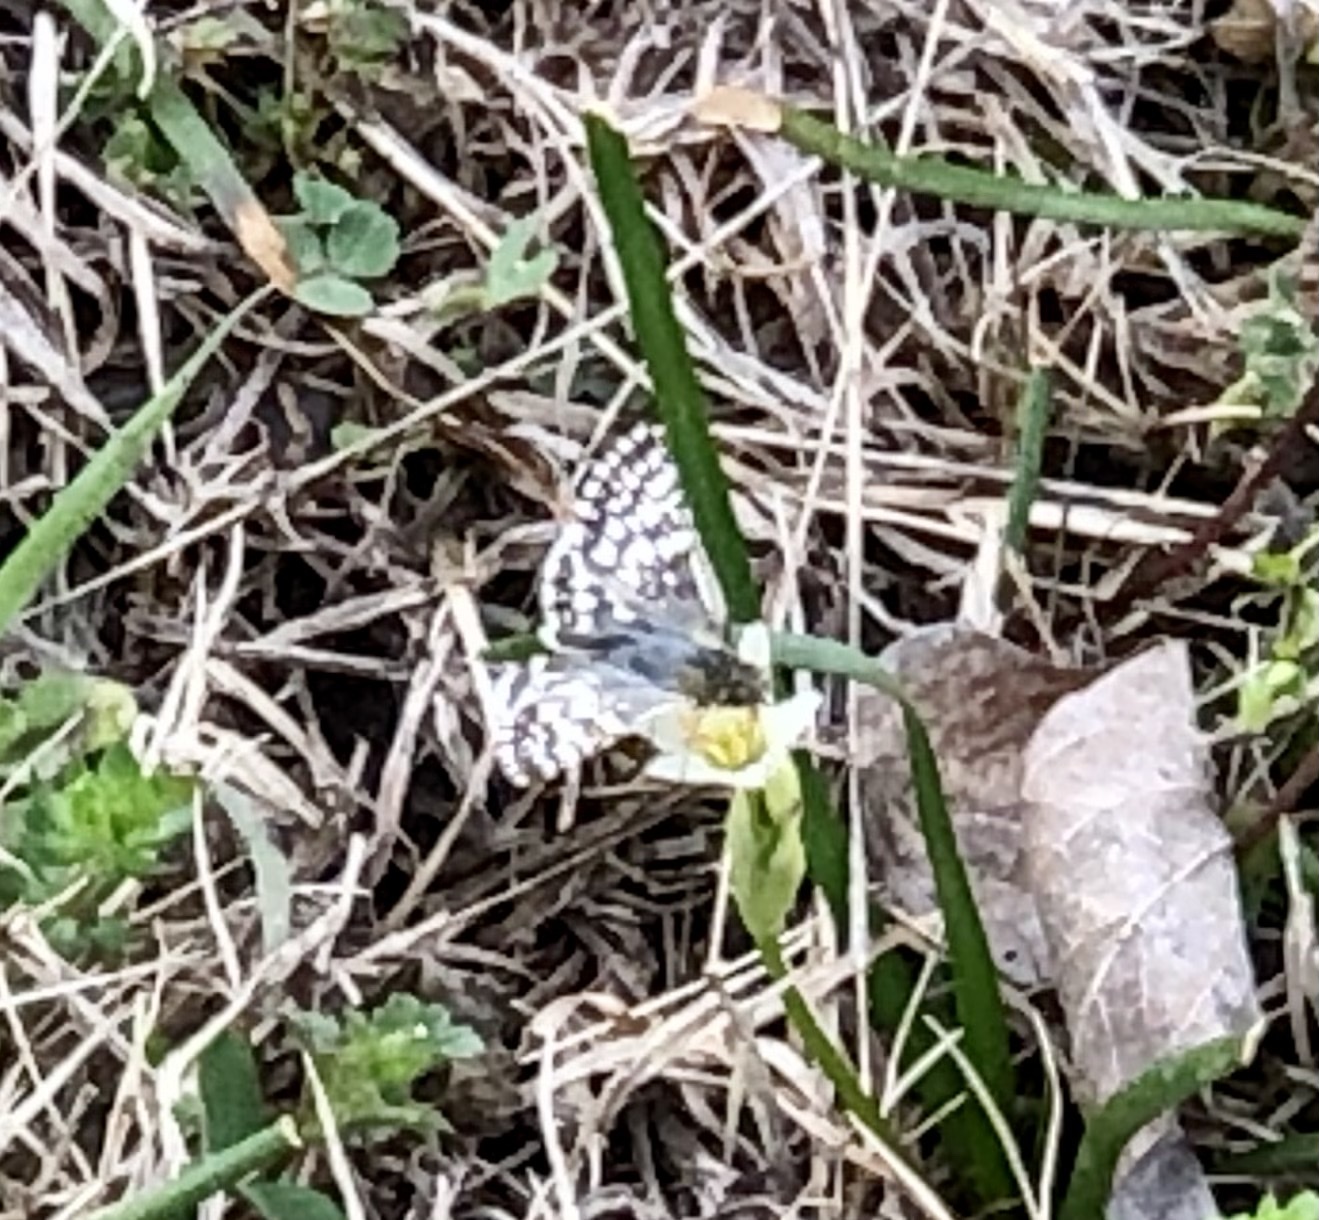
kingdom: Animalia
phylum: Arthropoda
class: Insecta
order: Lepidoptera
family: Hesperiidae
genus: Burnsius
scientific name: Burnsius
